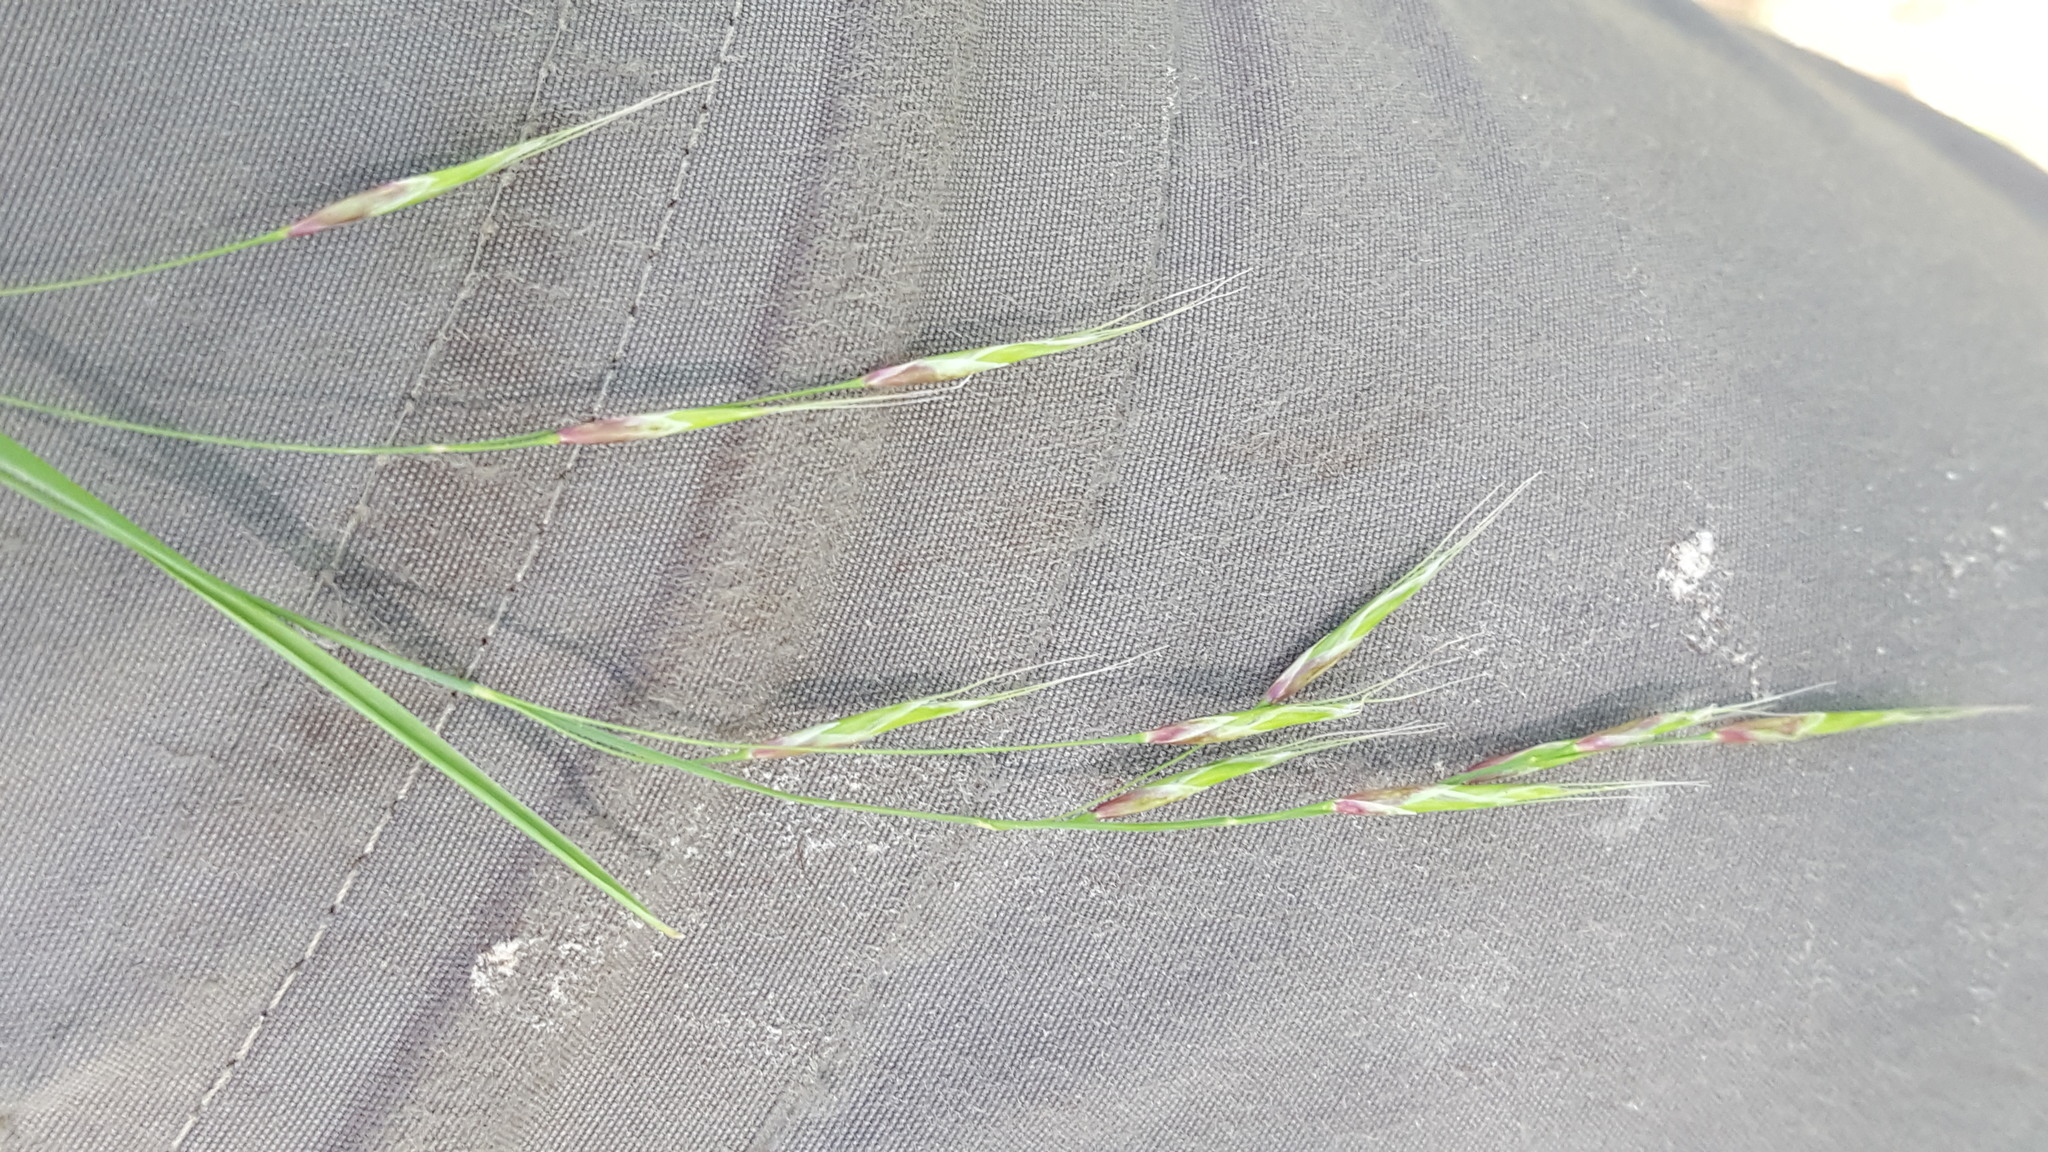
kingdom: Plantae
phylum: Tracheophyta
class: Liliopsida
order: Poales
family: Poaceae
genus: Schizachne
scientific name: Schizachne purpurascens
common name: False melic
